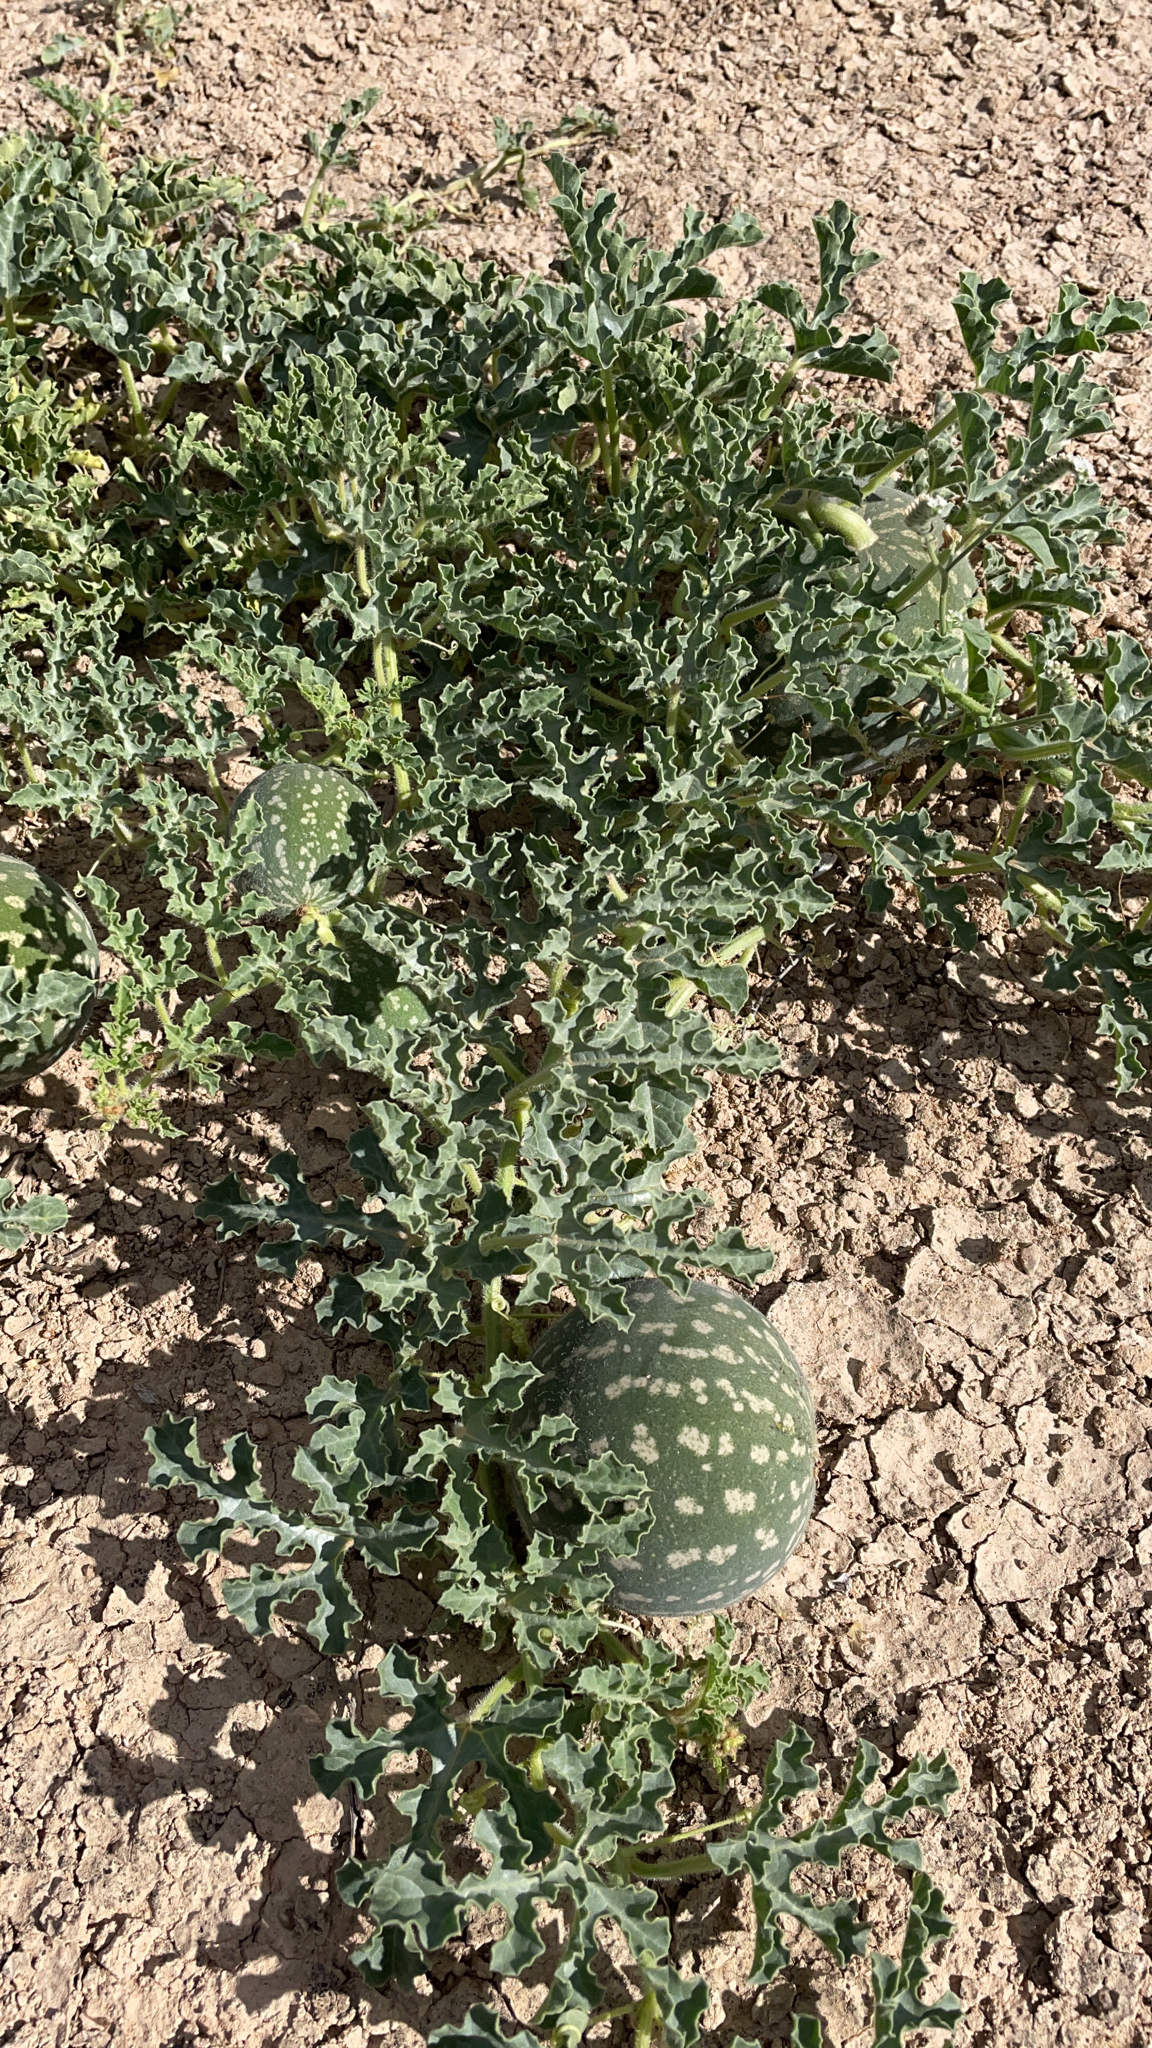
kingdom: Plantae
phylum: Tracheophyta
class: Magnoliopsida
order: Cucurbitales
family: Cucurbitaceae
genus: Citrullus
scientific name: Citrullus amarus
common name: Fodder-melon
